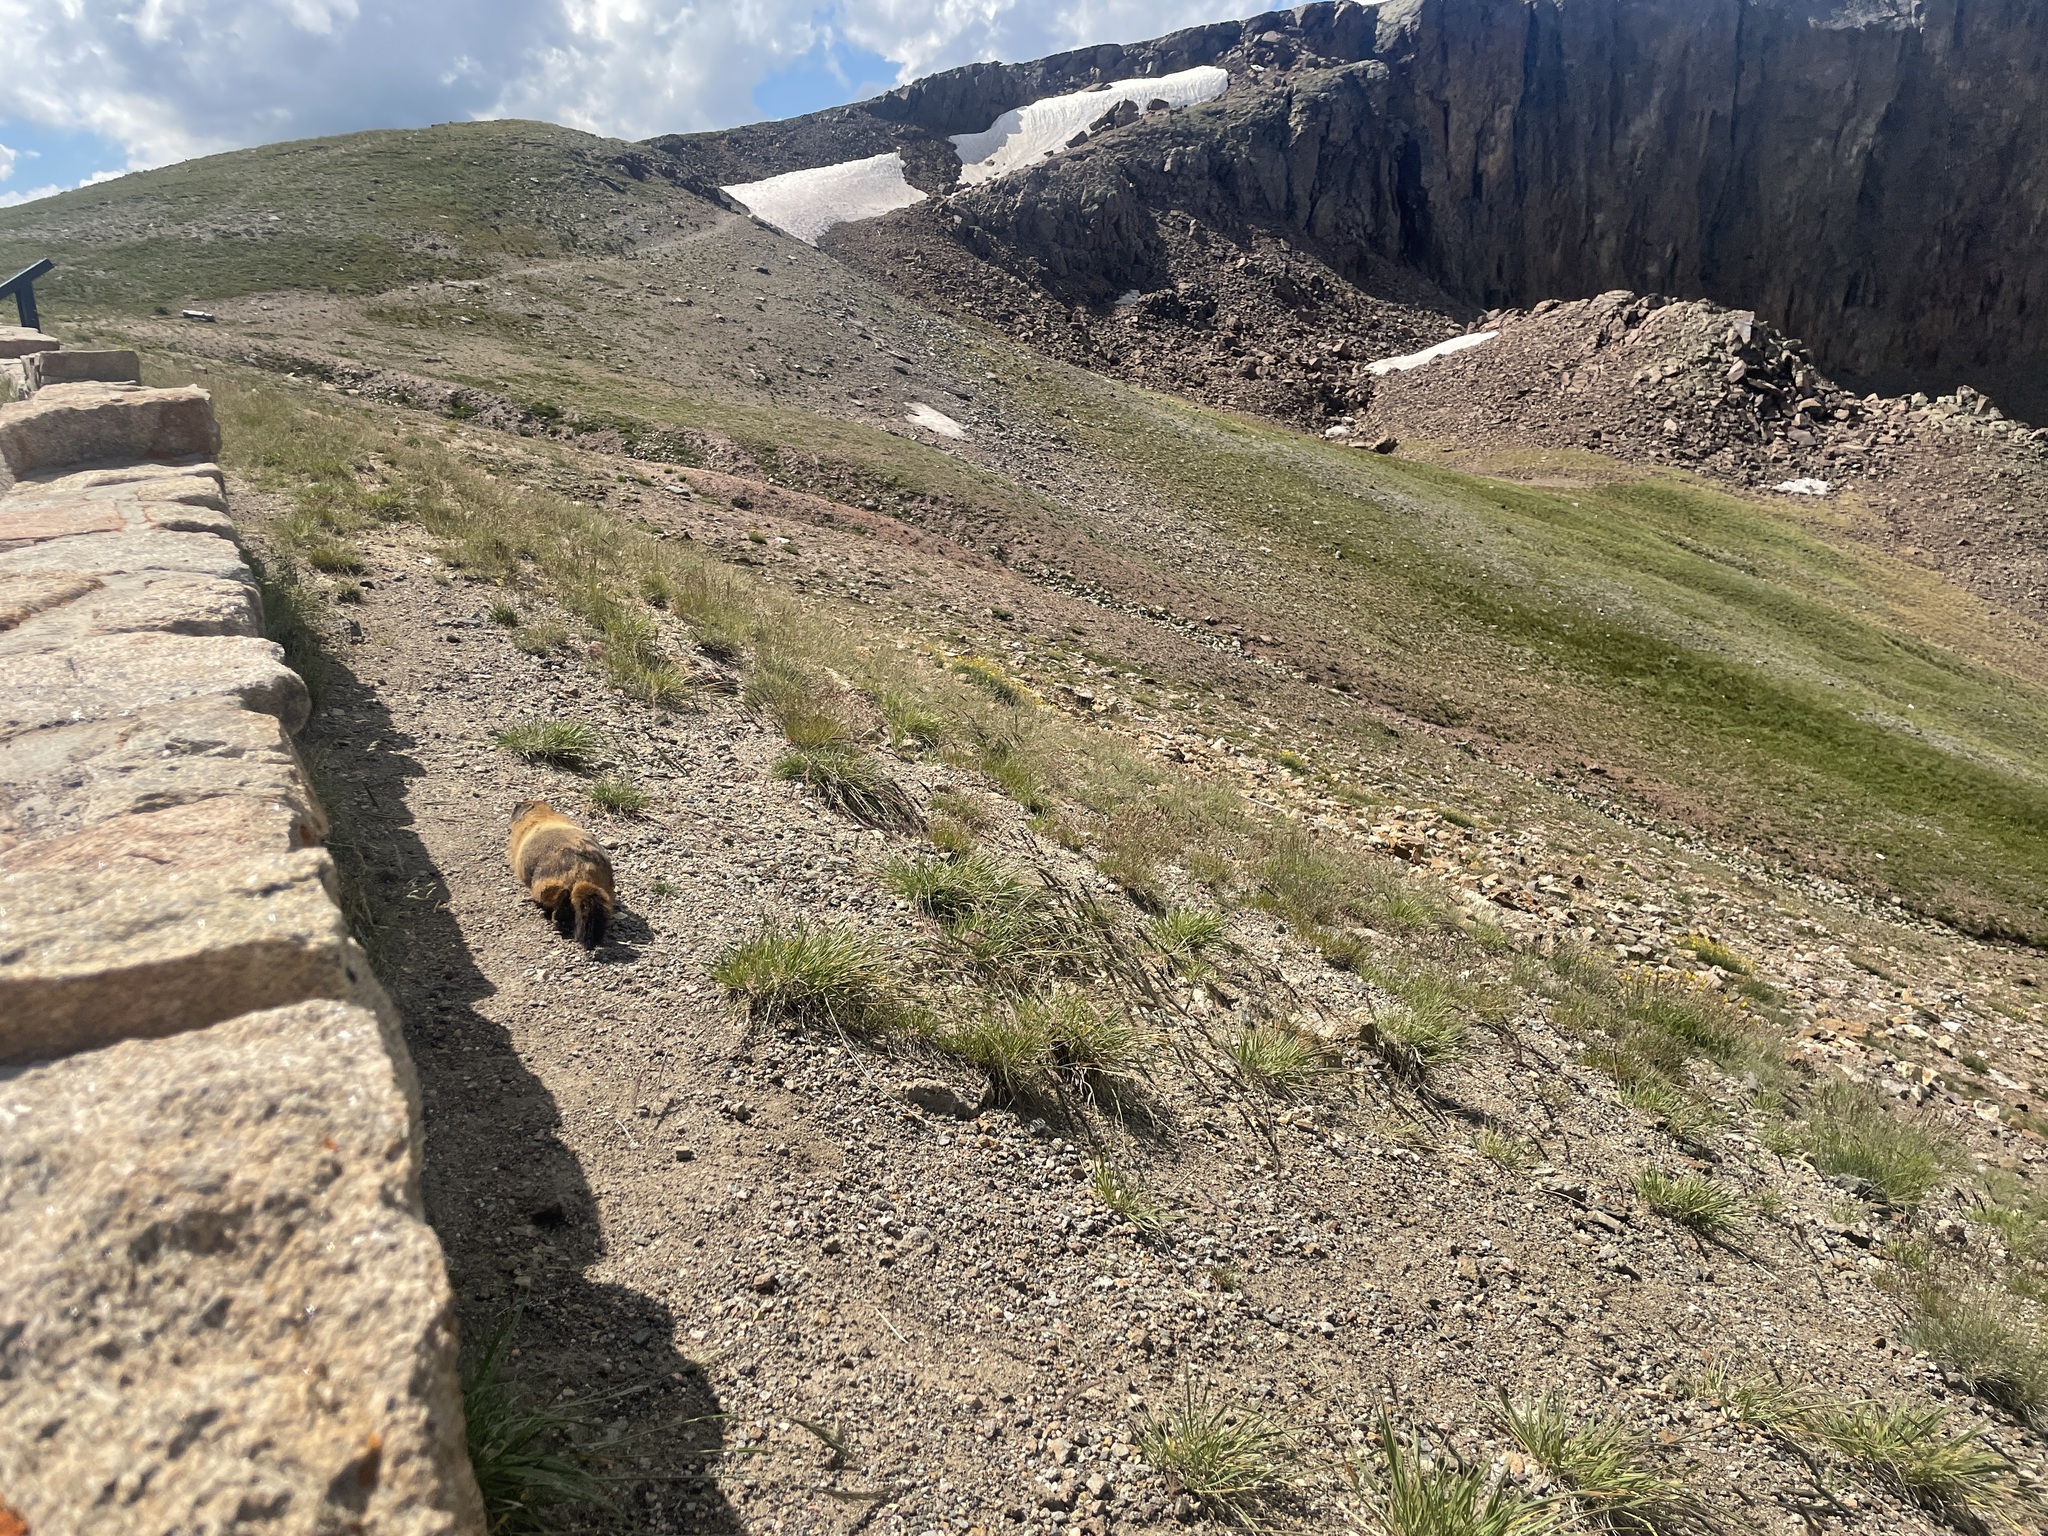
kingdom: Animalia
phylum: Chordata
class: Mammalia
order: Rodentia
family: Sciuridae
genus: Marmota
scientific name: Marmota flaviventris
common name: Yellow-bellied marmot
